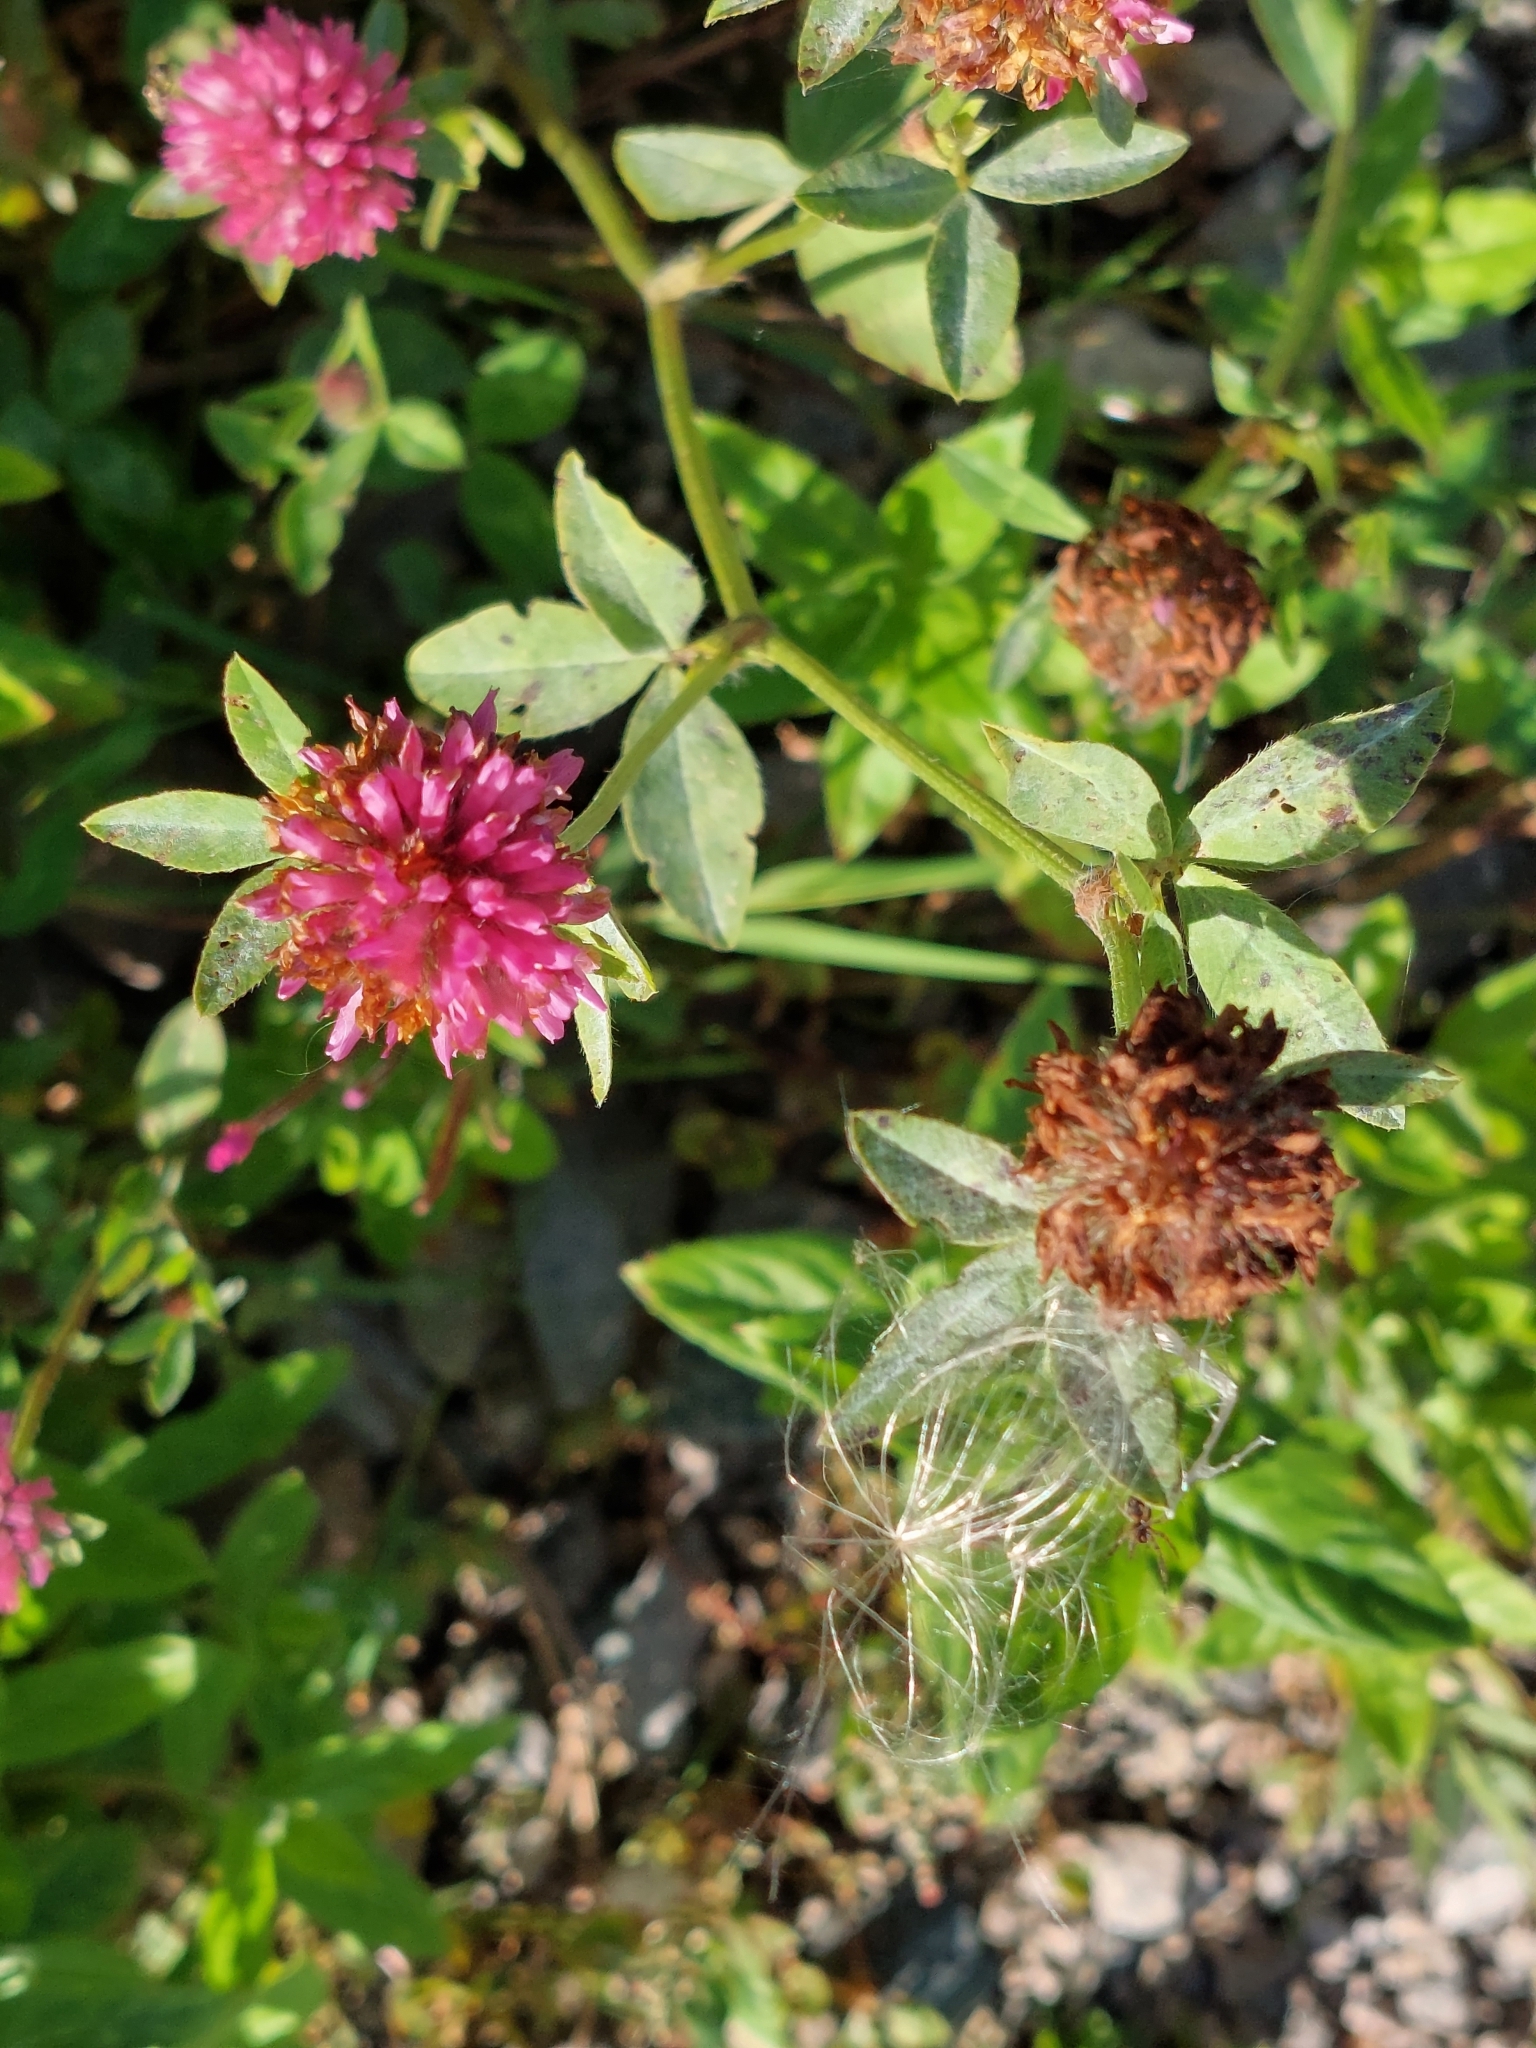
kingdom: Plantae
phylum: Tracheophyta
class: Magnoliopsida
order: Fabales
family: Fabaceae
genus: Trifolium
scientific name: Trifolium pratense
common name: Red clover
